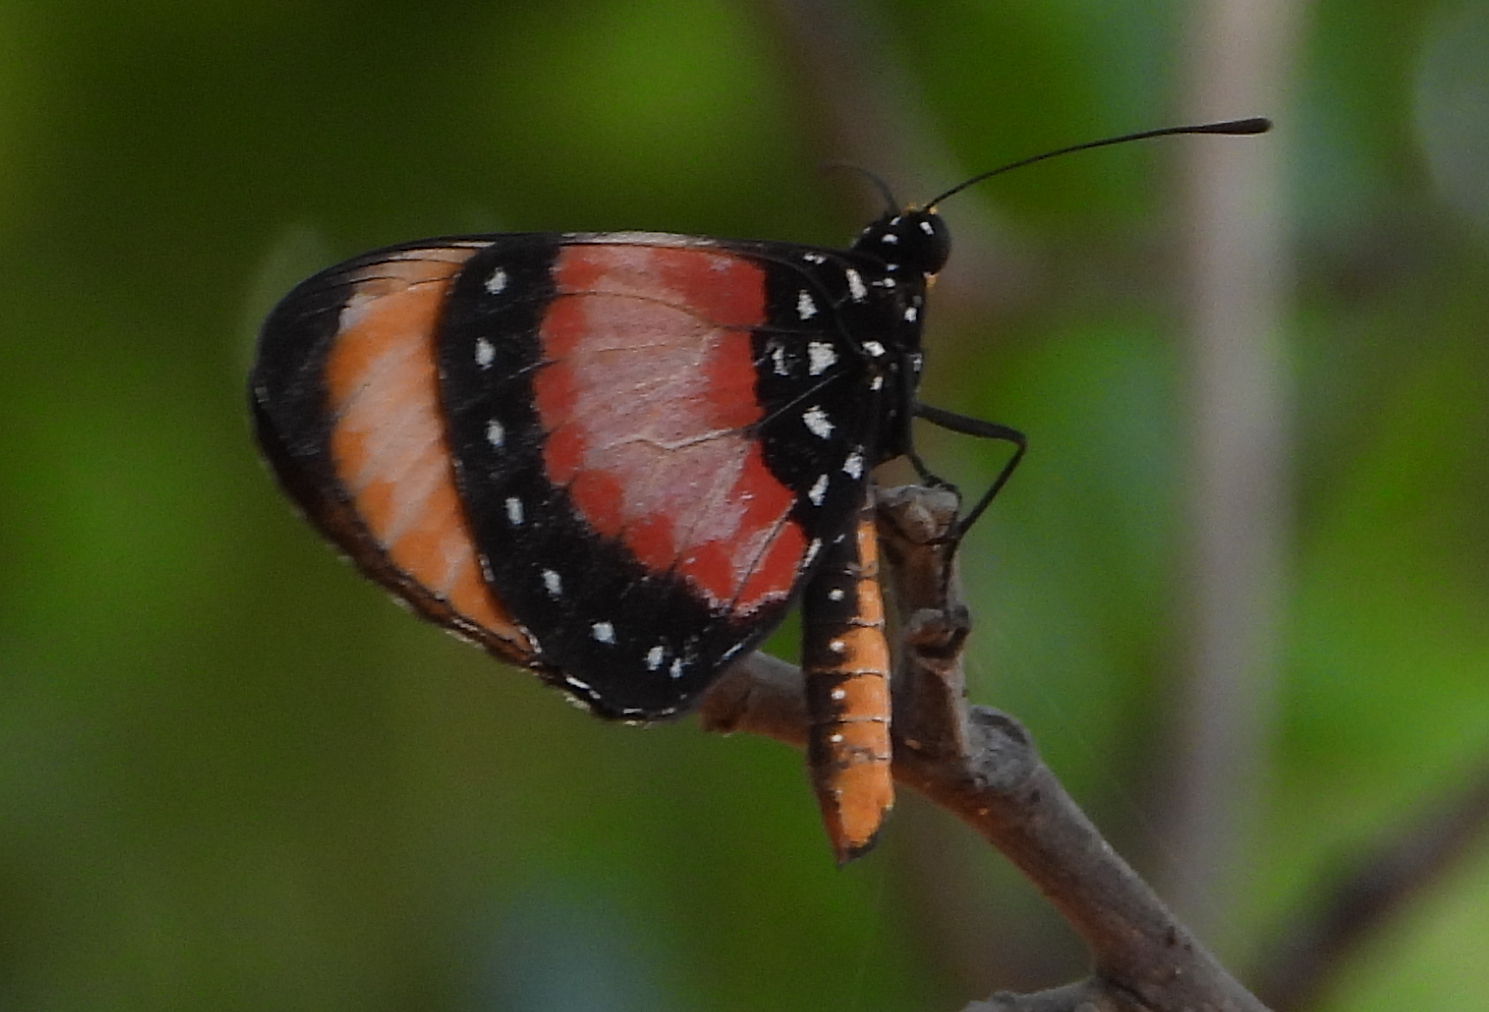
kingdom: Animalia
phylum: Arthropoda
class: Insecta
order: Lepidoptera
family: Nymphalidae
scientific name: Nymphalidae
